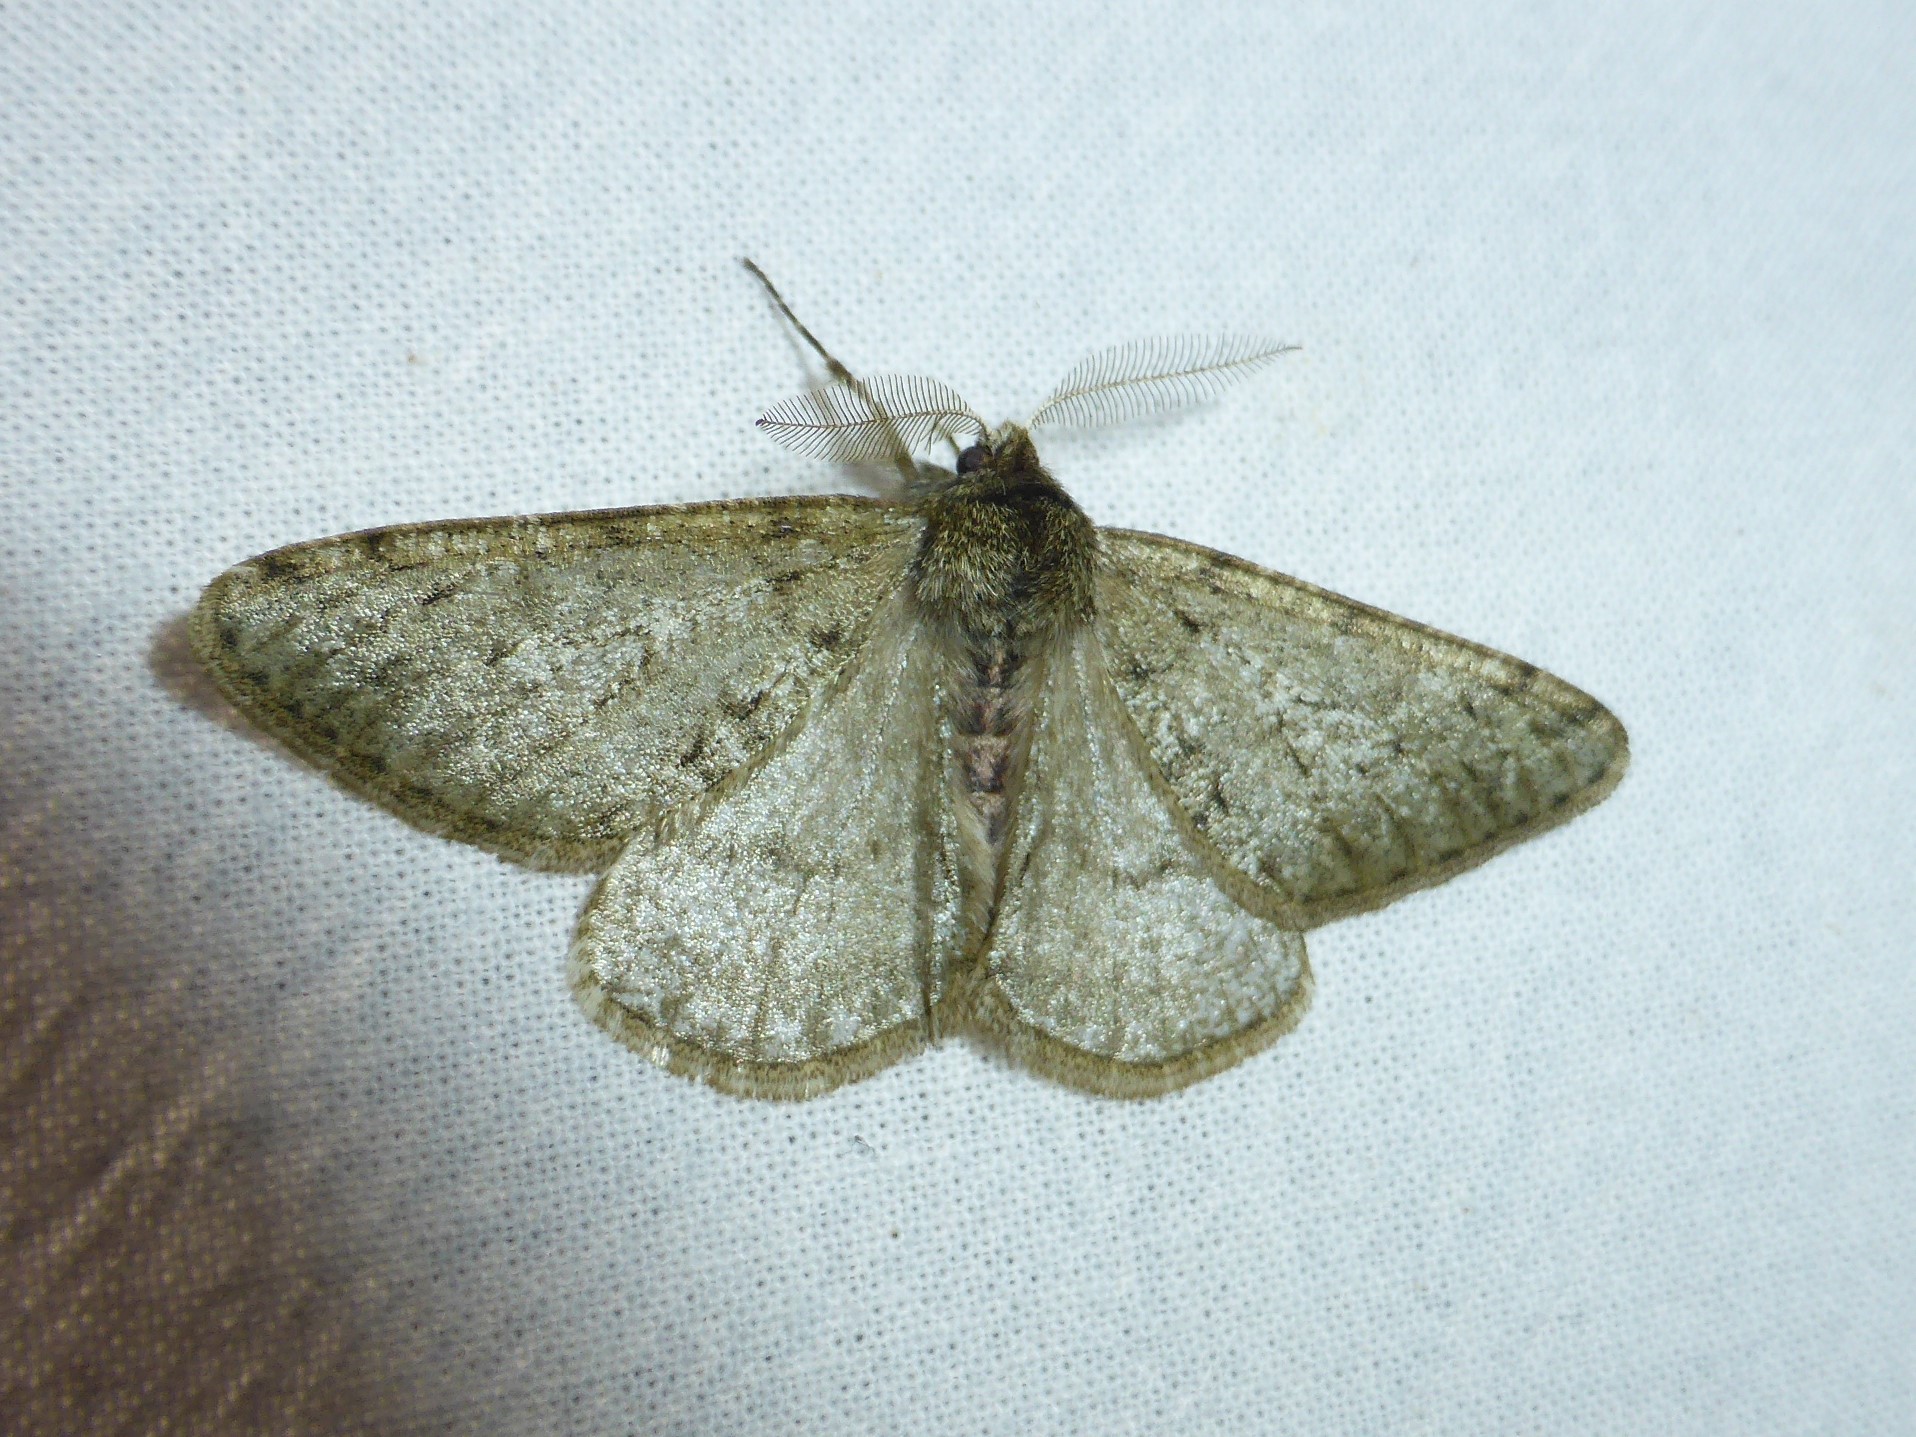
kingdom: Animalia
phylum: Arthropoda
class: Insecta
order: Lepidoptera
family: Geometridae
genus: Phigalia
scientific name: Phigalia pilosaria
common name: Pale brindled beauty
